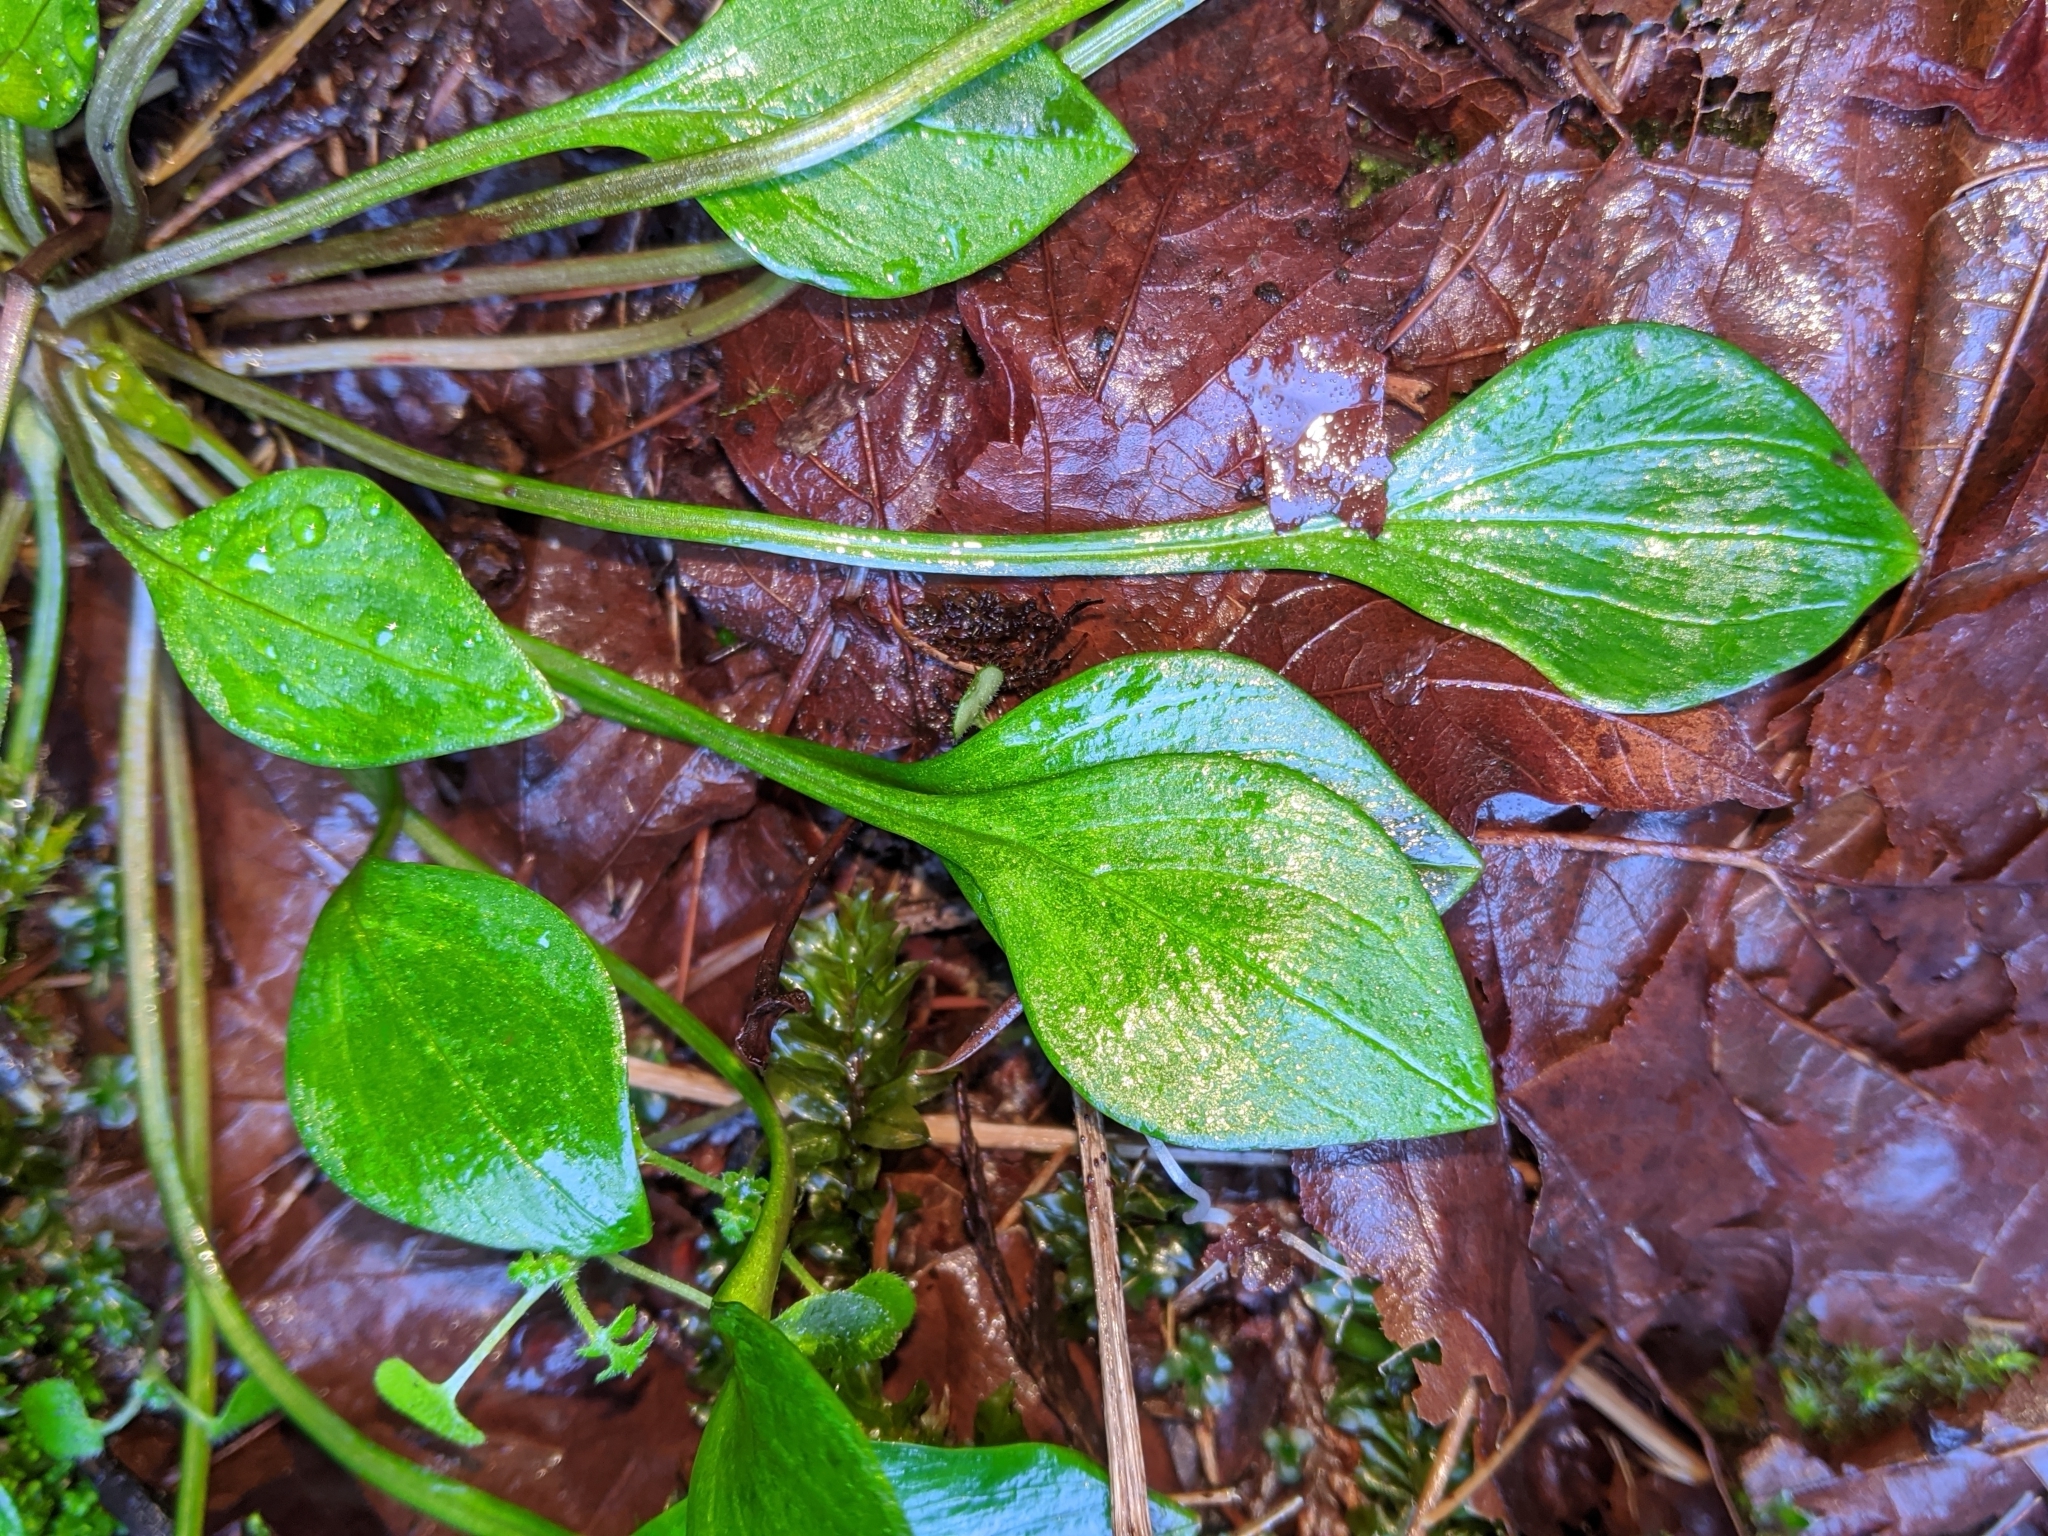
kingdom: Plantae
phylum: Tracheophyta
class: Magnoliopsida
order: Caryophyllales
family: Montiaceae
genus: Claytonia
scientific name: Claytonia sibirica
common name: Pink purslane
